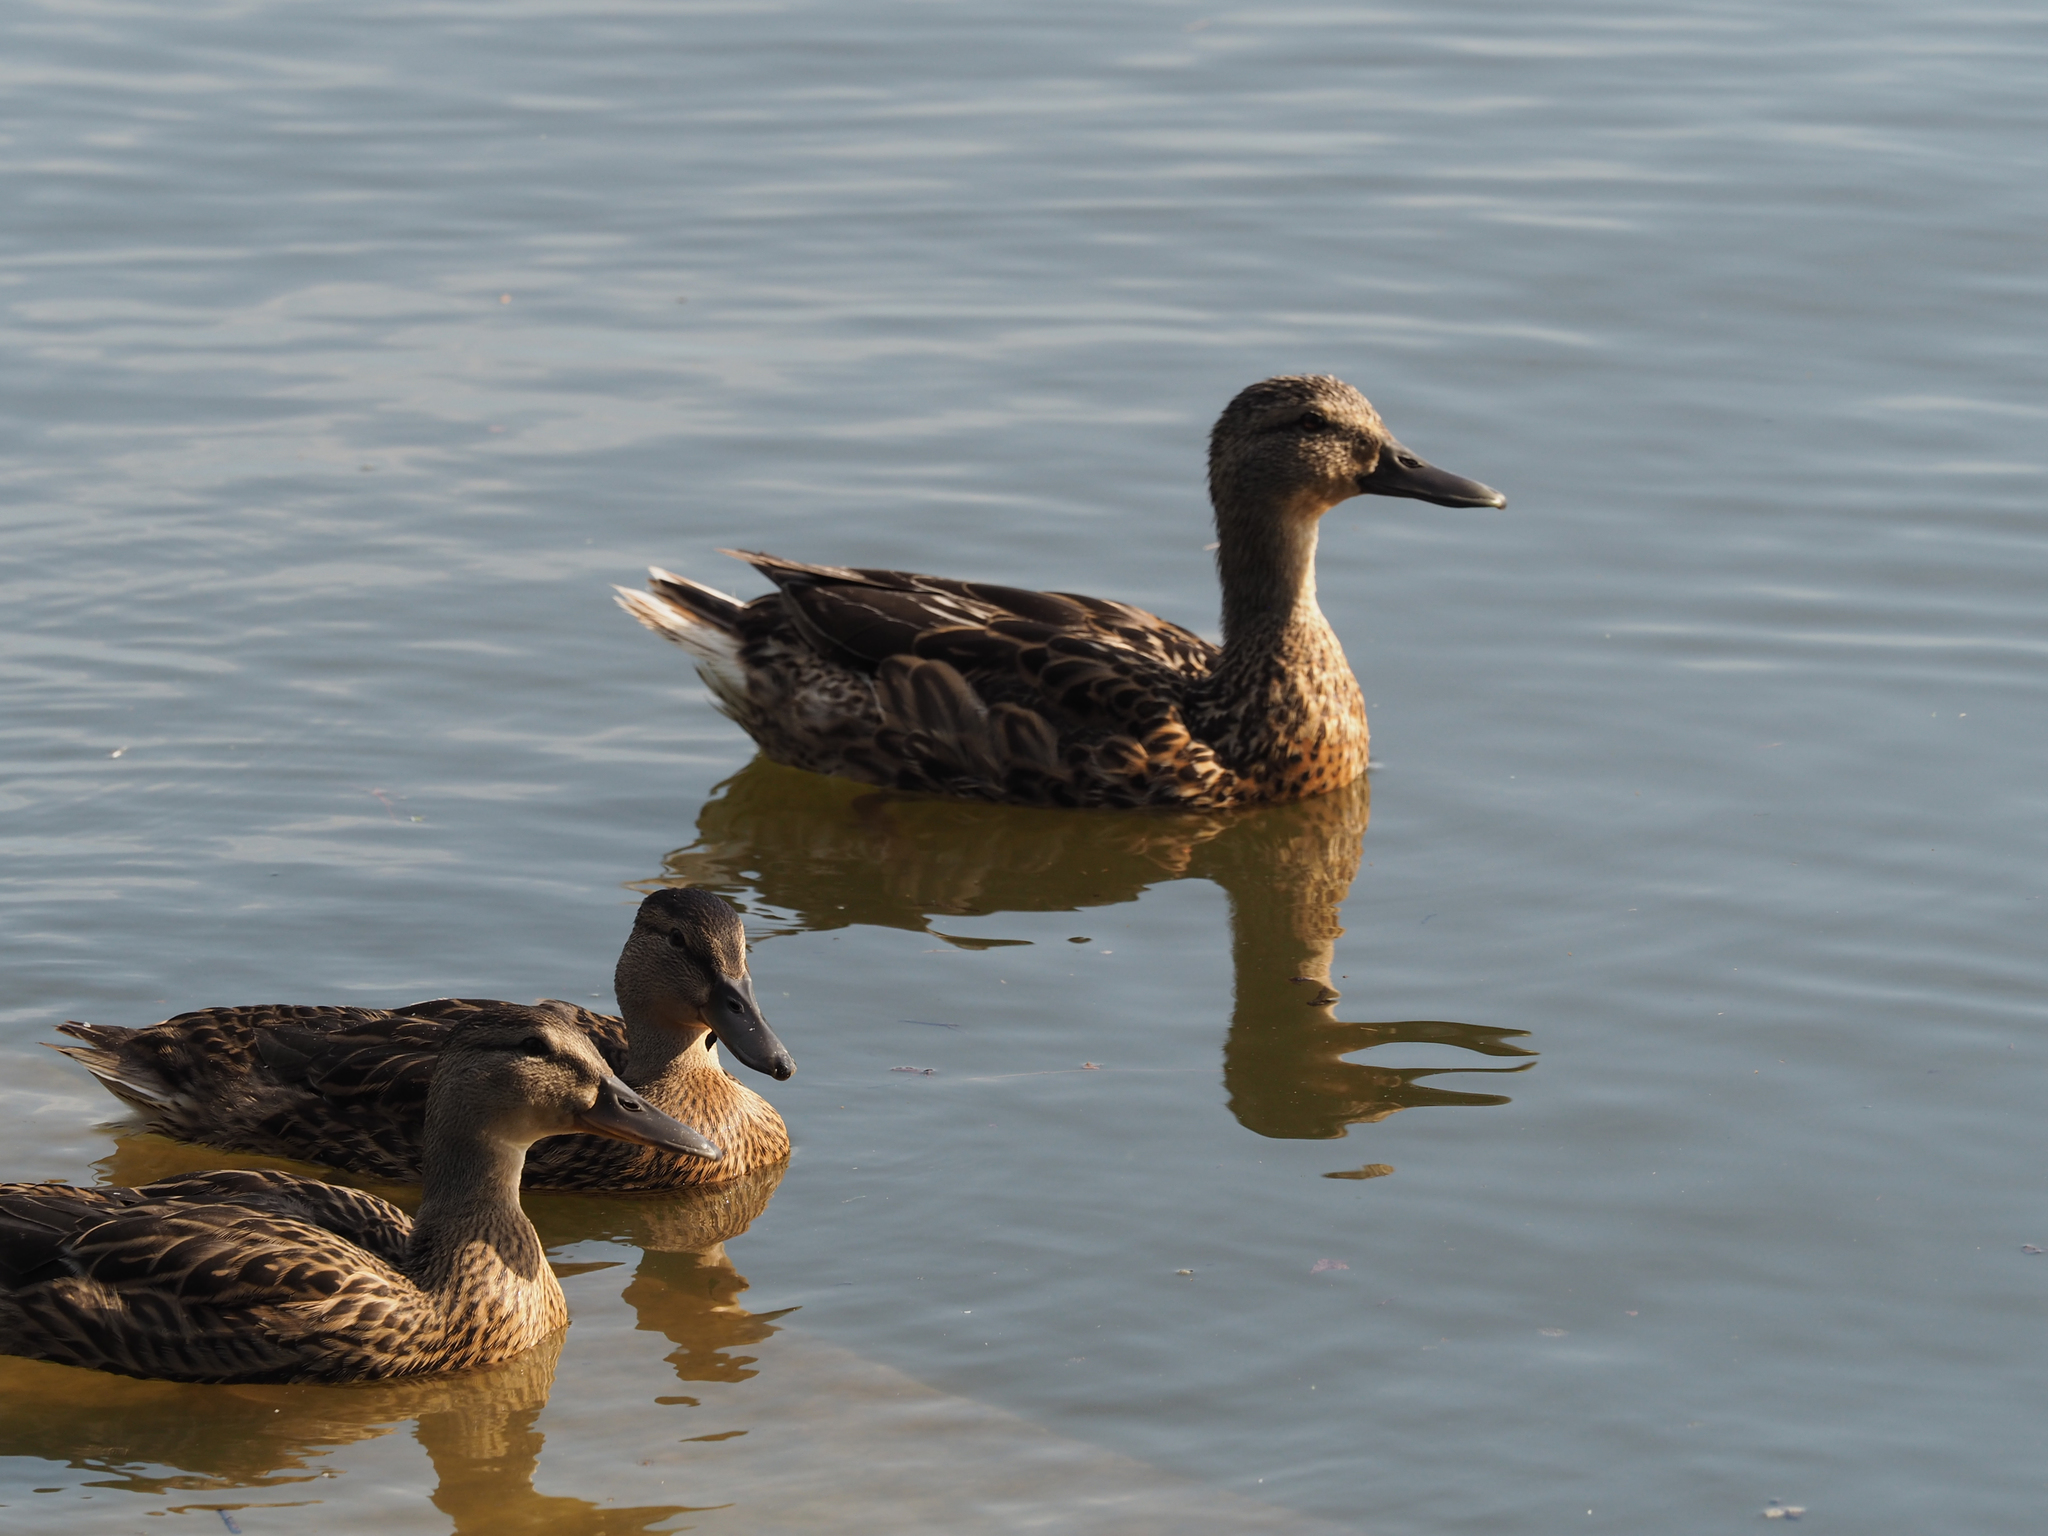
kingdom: Animalia
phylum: Chordata
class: Aves
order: Anseriformes
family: Anatidae
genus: Anas
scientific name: Anas platyrhynchos
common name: Mallard
